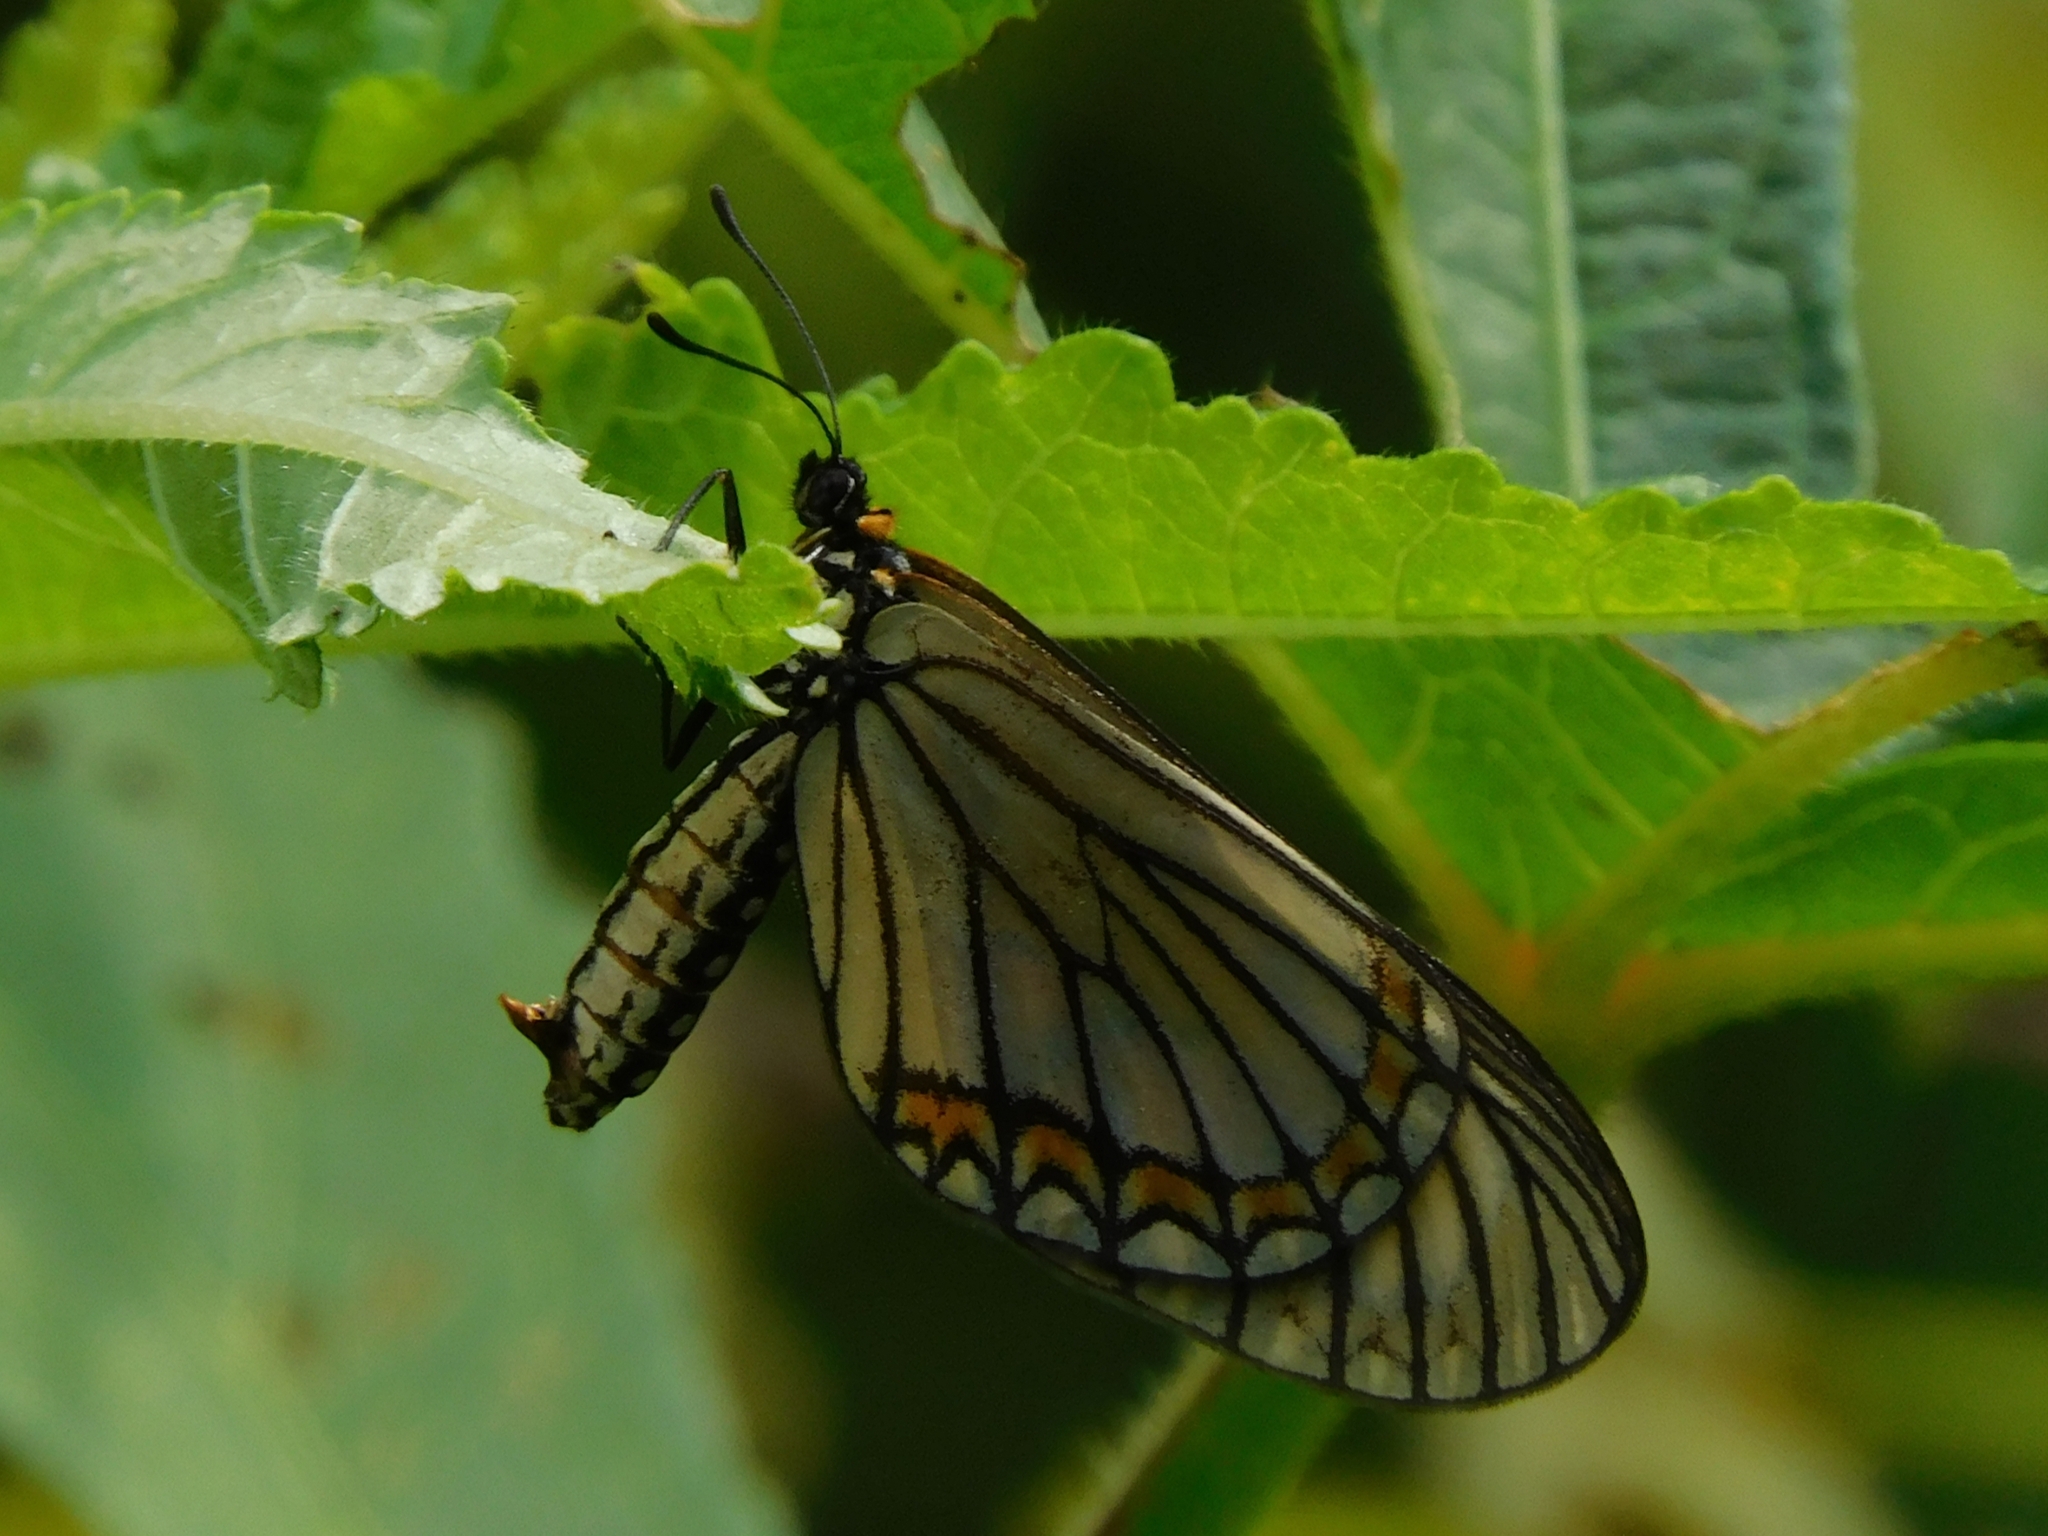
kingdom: Animalia
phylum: Arthropoda
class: Insecta
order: Lepidoptera
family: Nymphalidae
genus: Acraea
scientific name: Acraea Telchinia issoria
